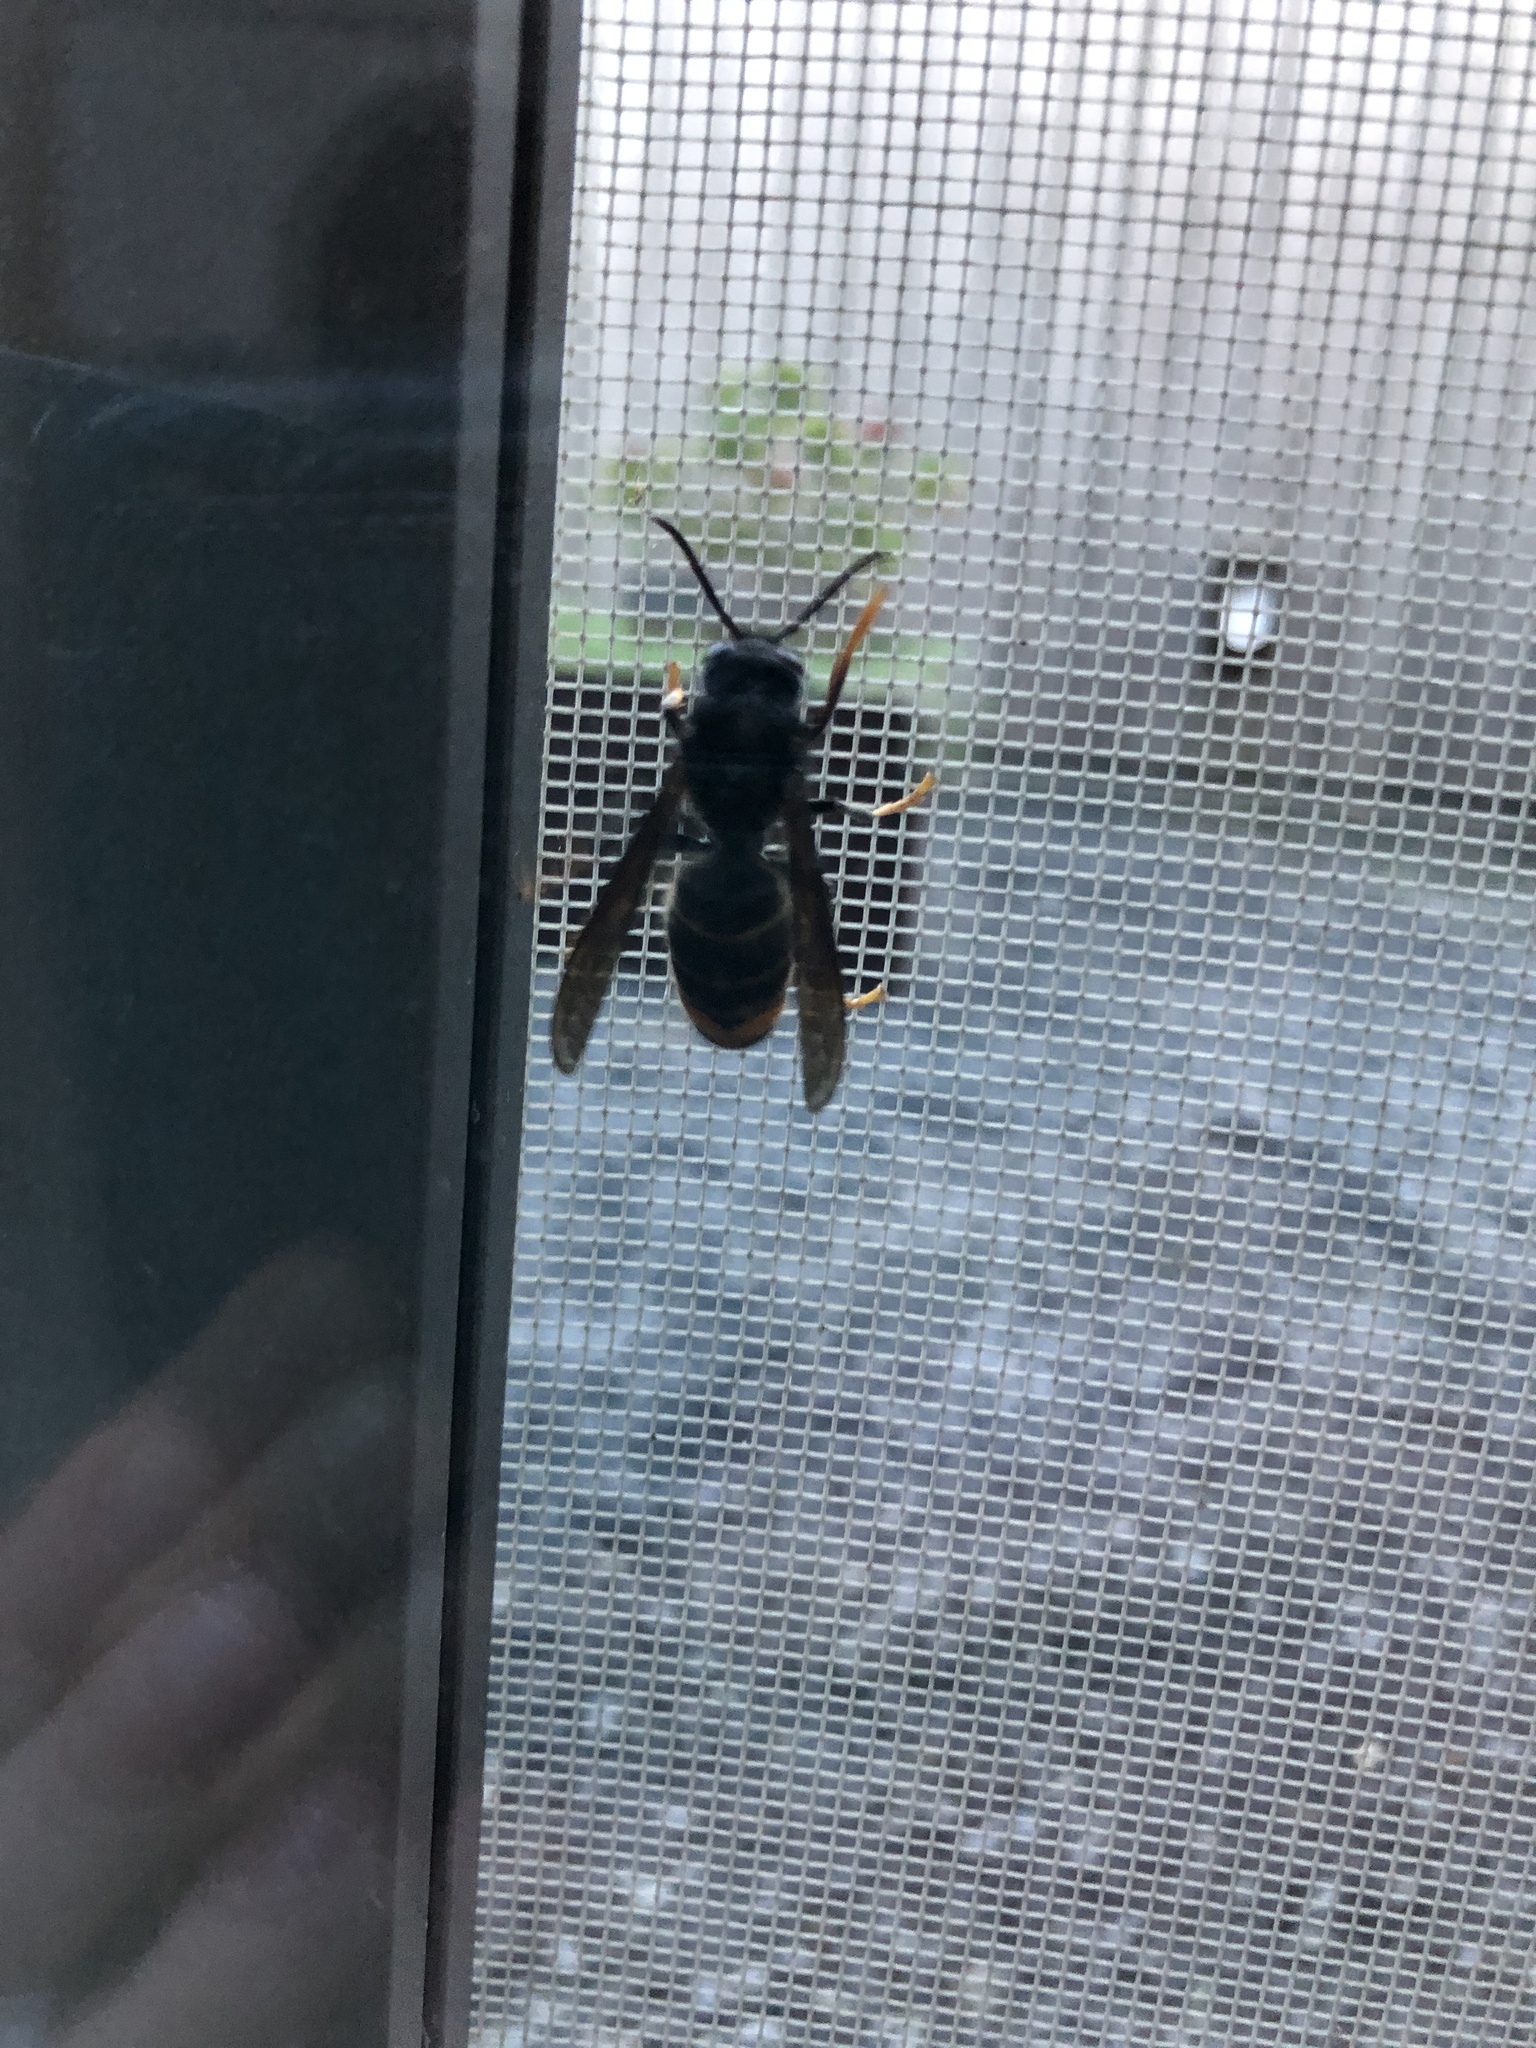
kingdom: Animalia
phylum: Arthropoda
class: Insecta
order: Hymenoptera
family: Vespidae
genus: Vespa
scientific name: Vespa velutina
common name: Asian hornet
